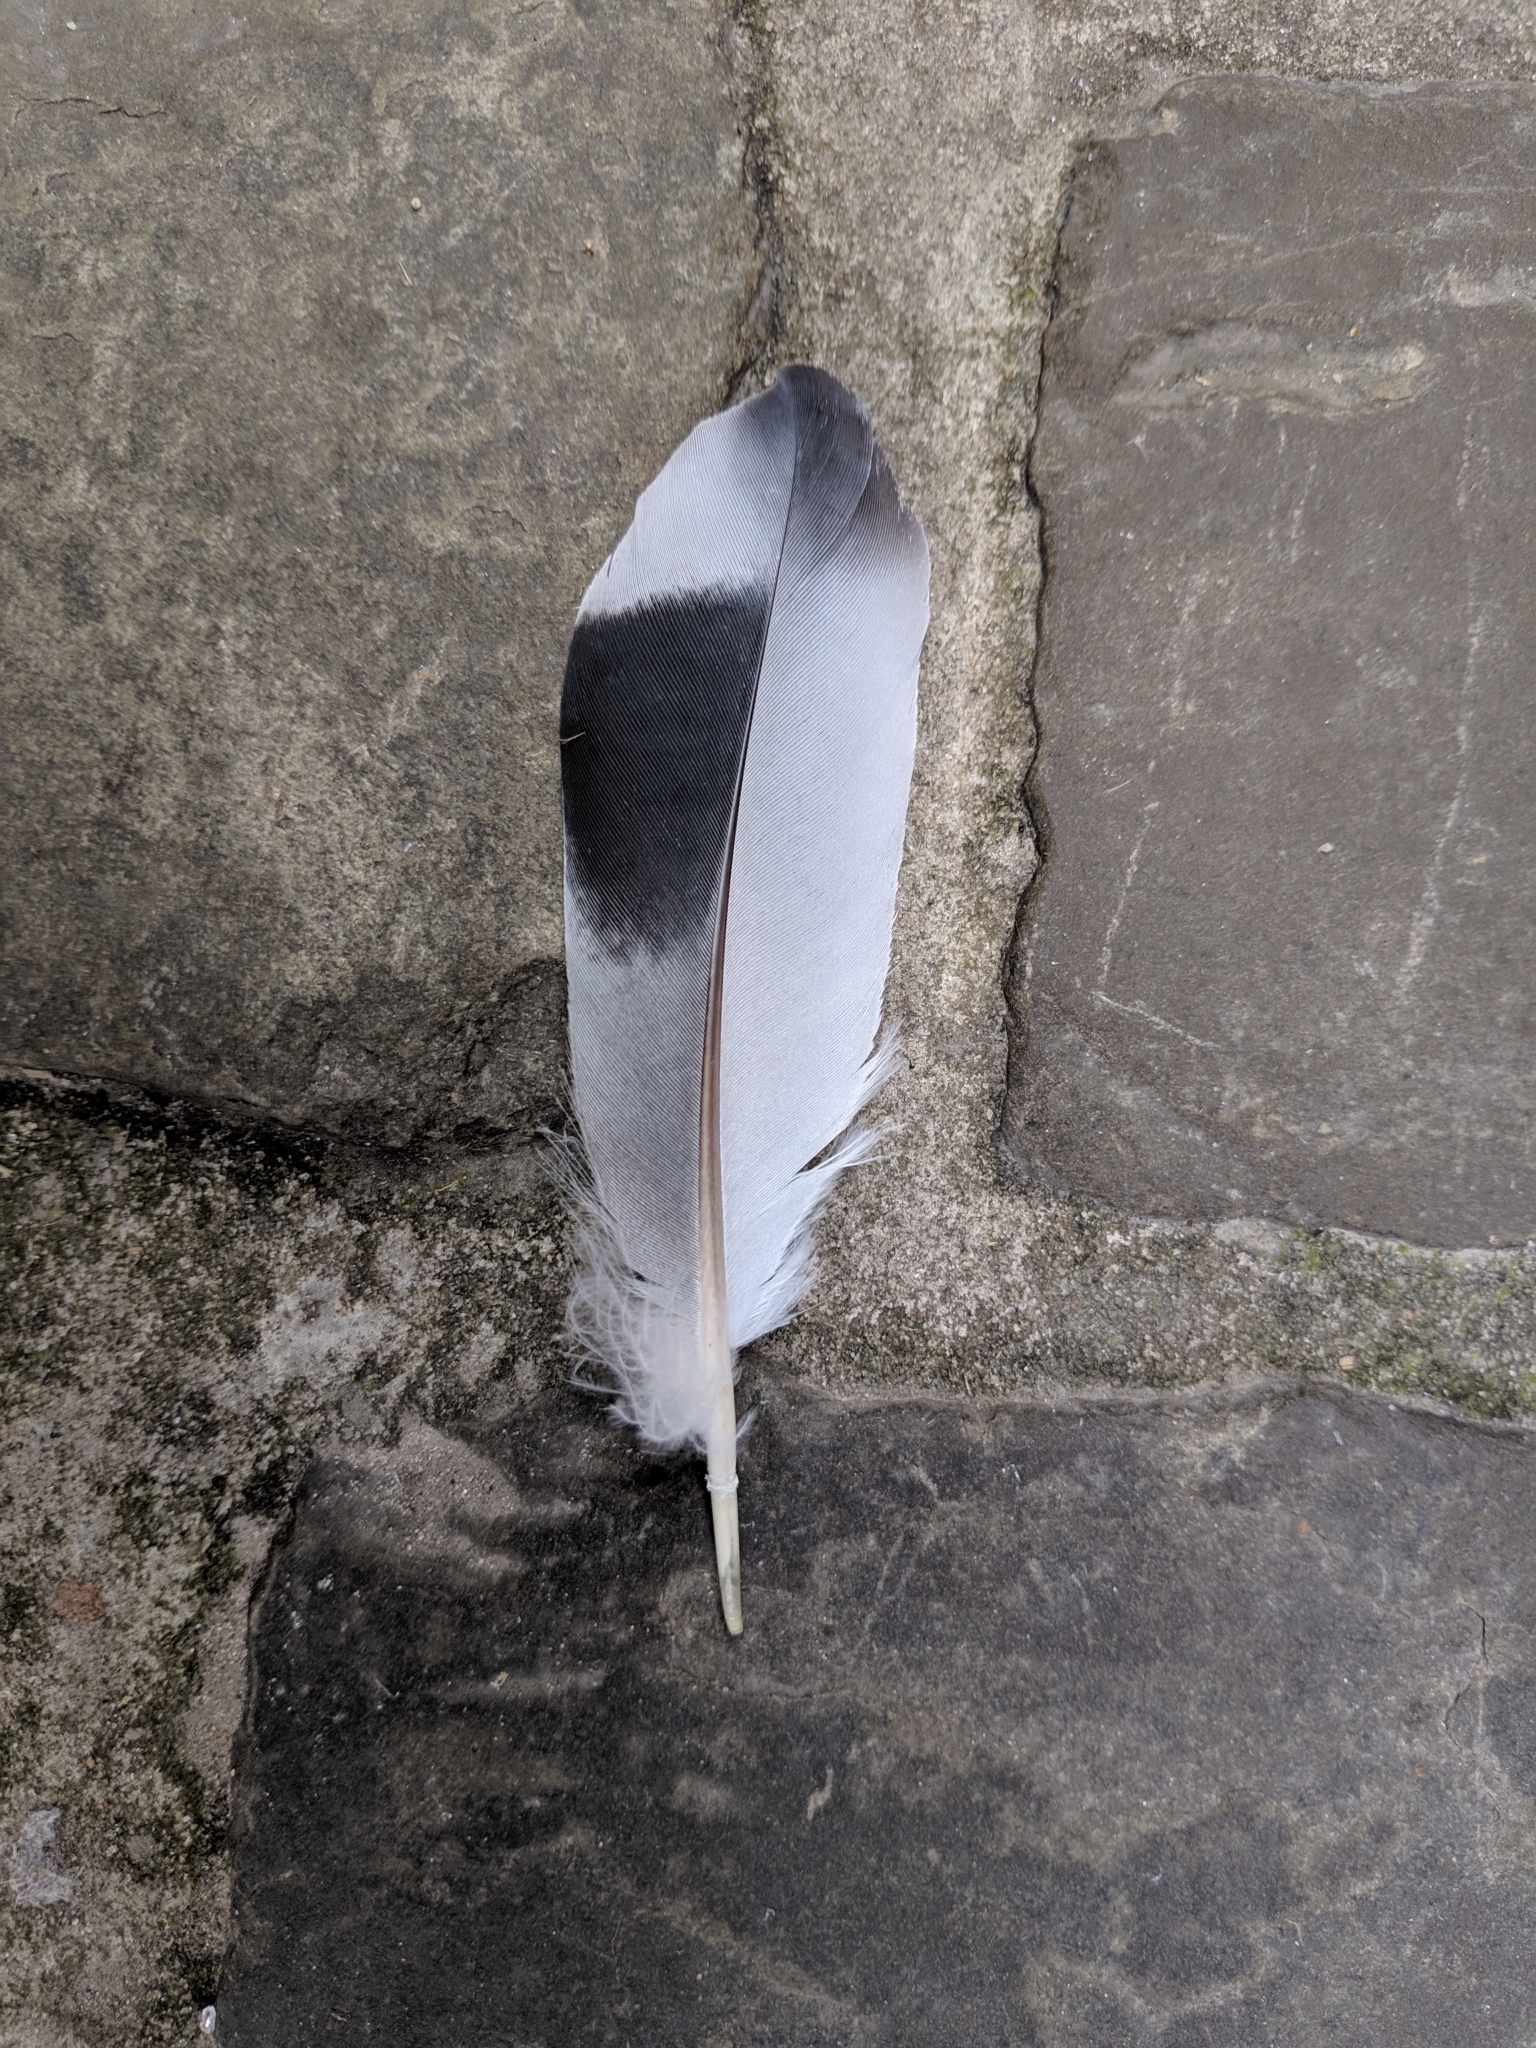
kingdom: Animalia
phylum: Chordata
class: Aves
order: Columbiformes
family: Columbidae
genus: Columba
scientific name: Columba livia
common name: Rock pigeon
